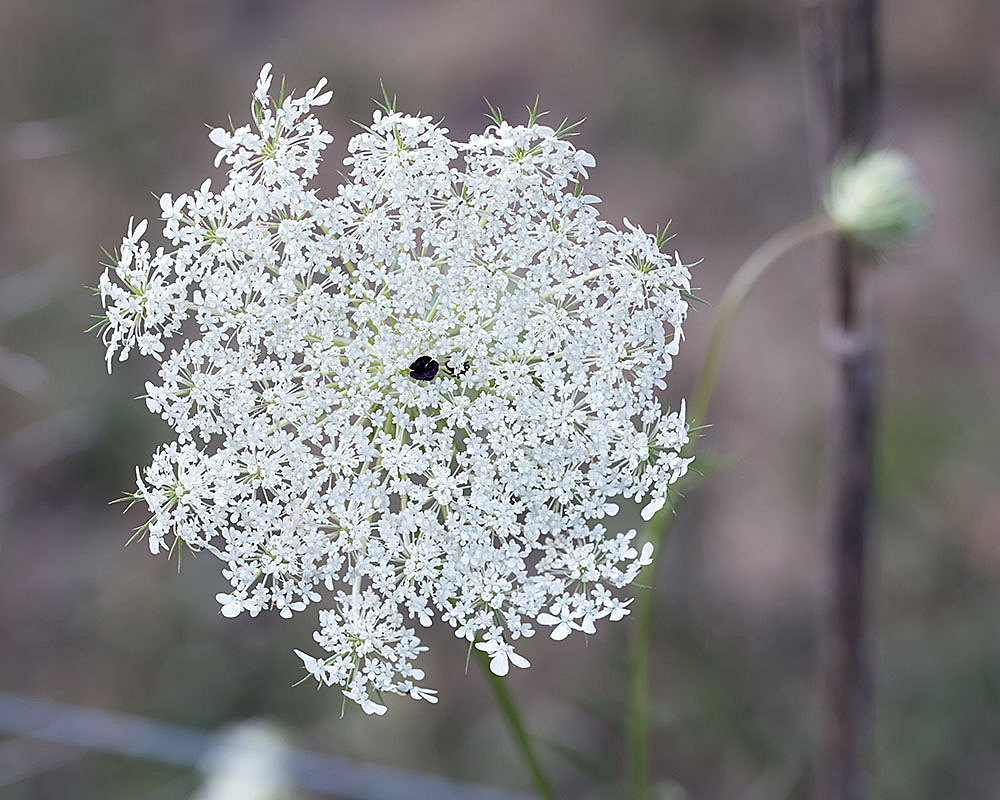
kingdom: Plantae
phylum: Tracheophyta
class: Magnoliopsida
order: Apiales
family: Apiaceae
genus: Daucus
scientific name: Daucus carota
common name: Wild carrot
